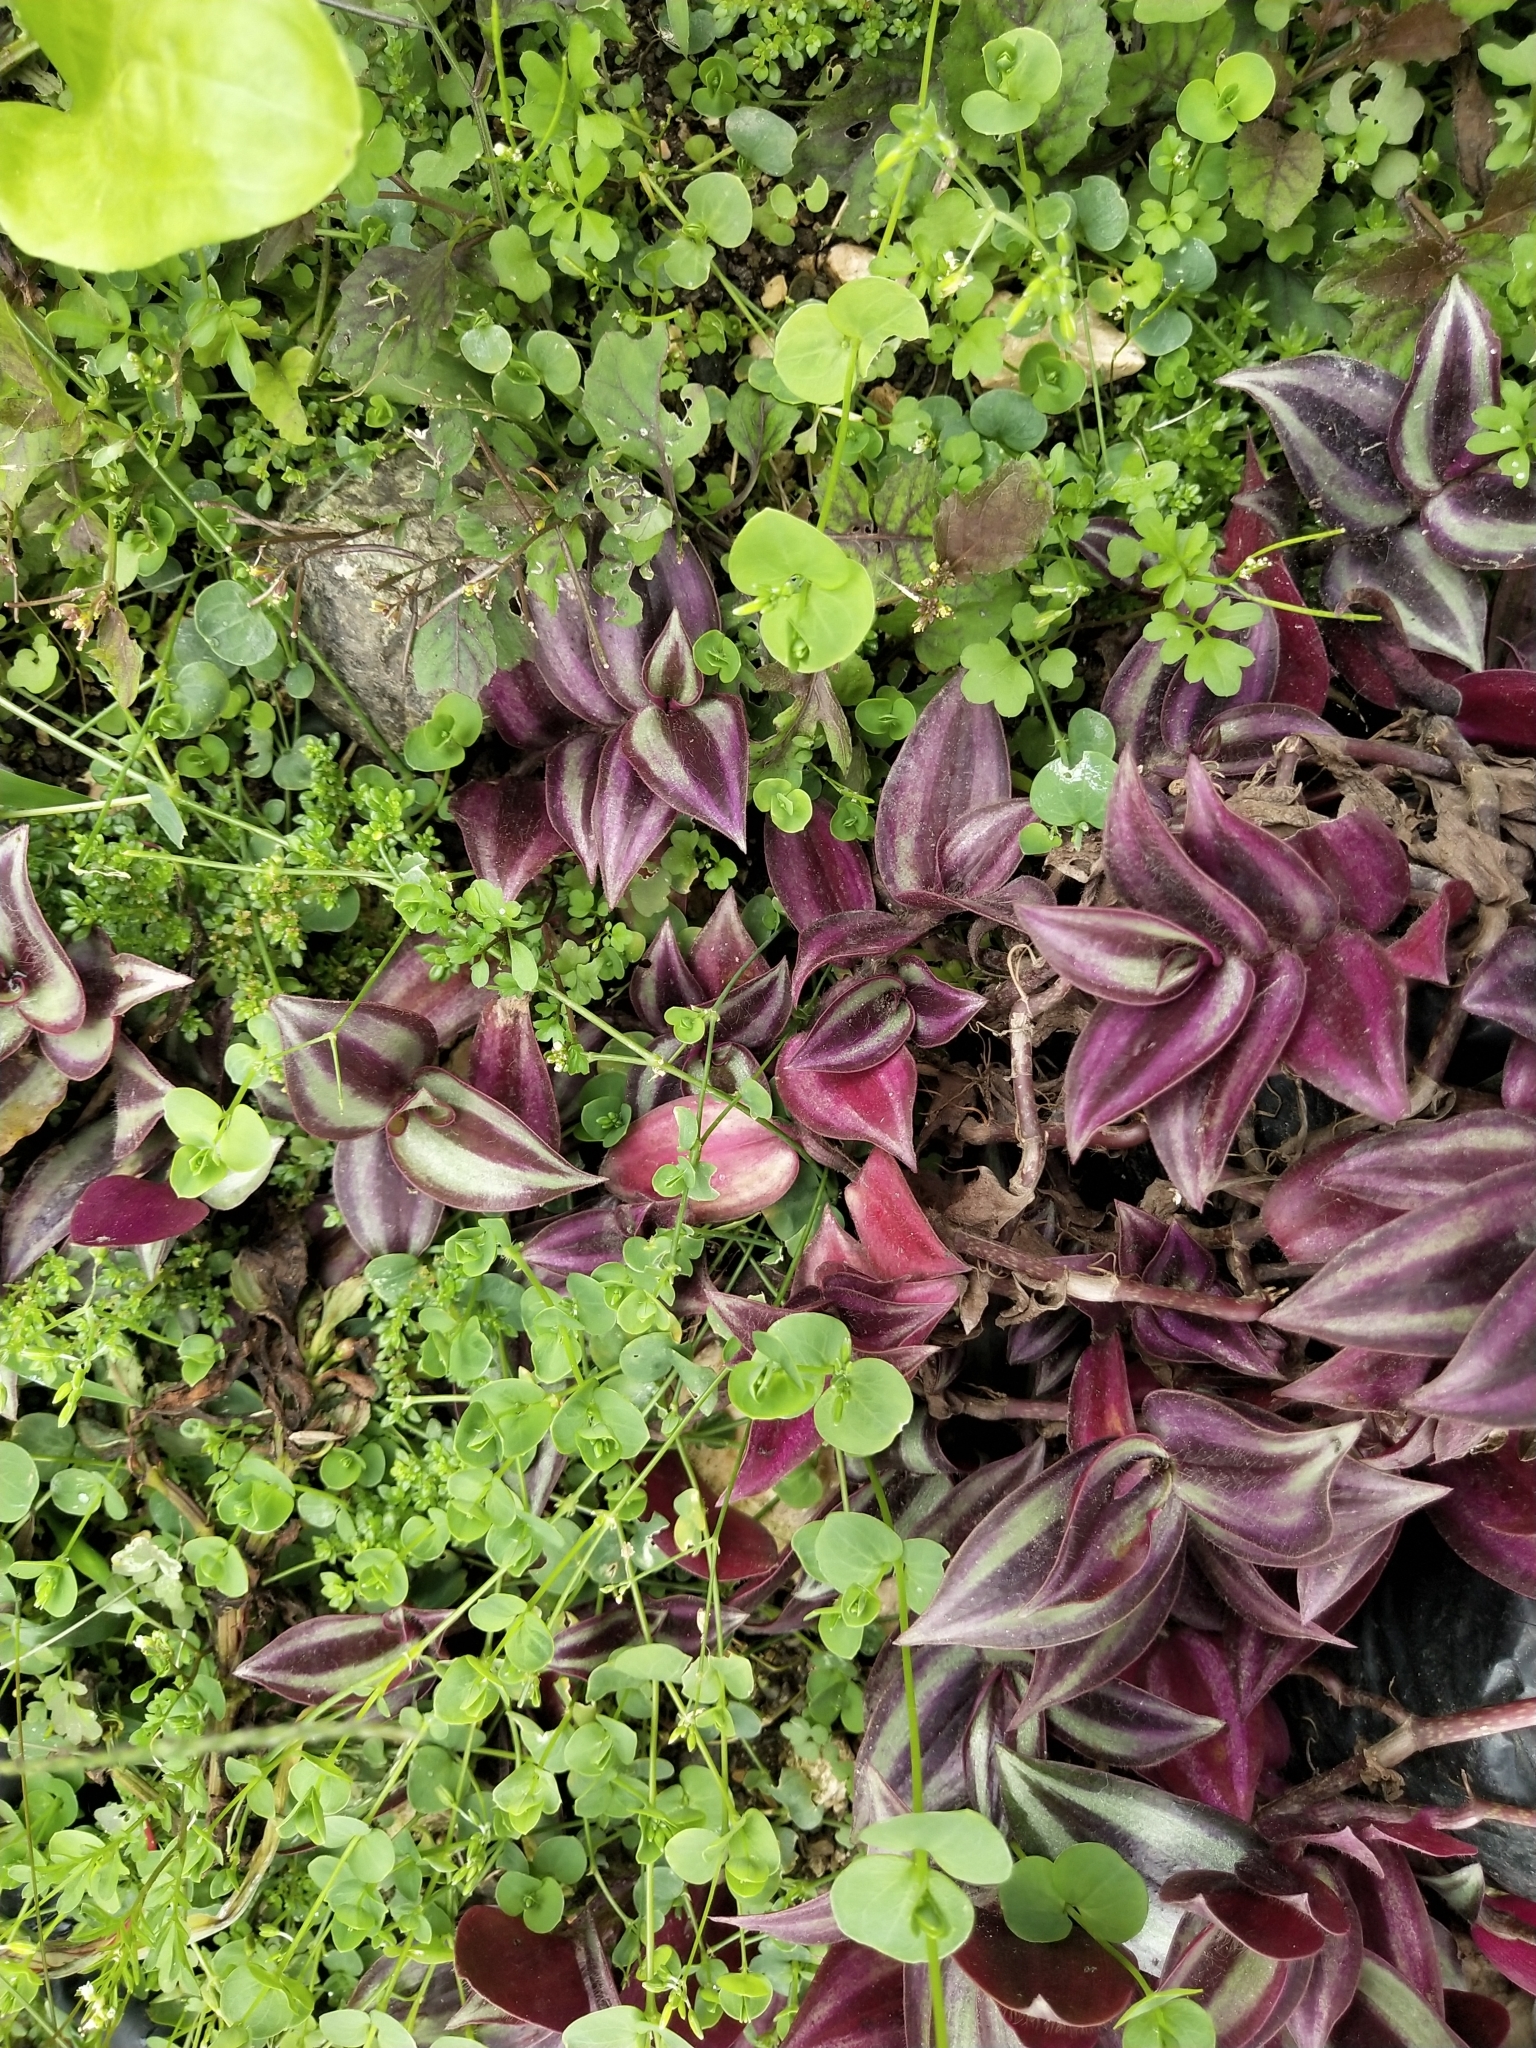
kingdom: Plantae
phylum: Tracheophyta
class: Liliopsida
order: Commelinales
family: Commelinaceae
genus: Tradescantia
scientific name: Tradescantia zebrina
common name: Inchplant
